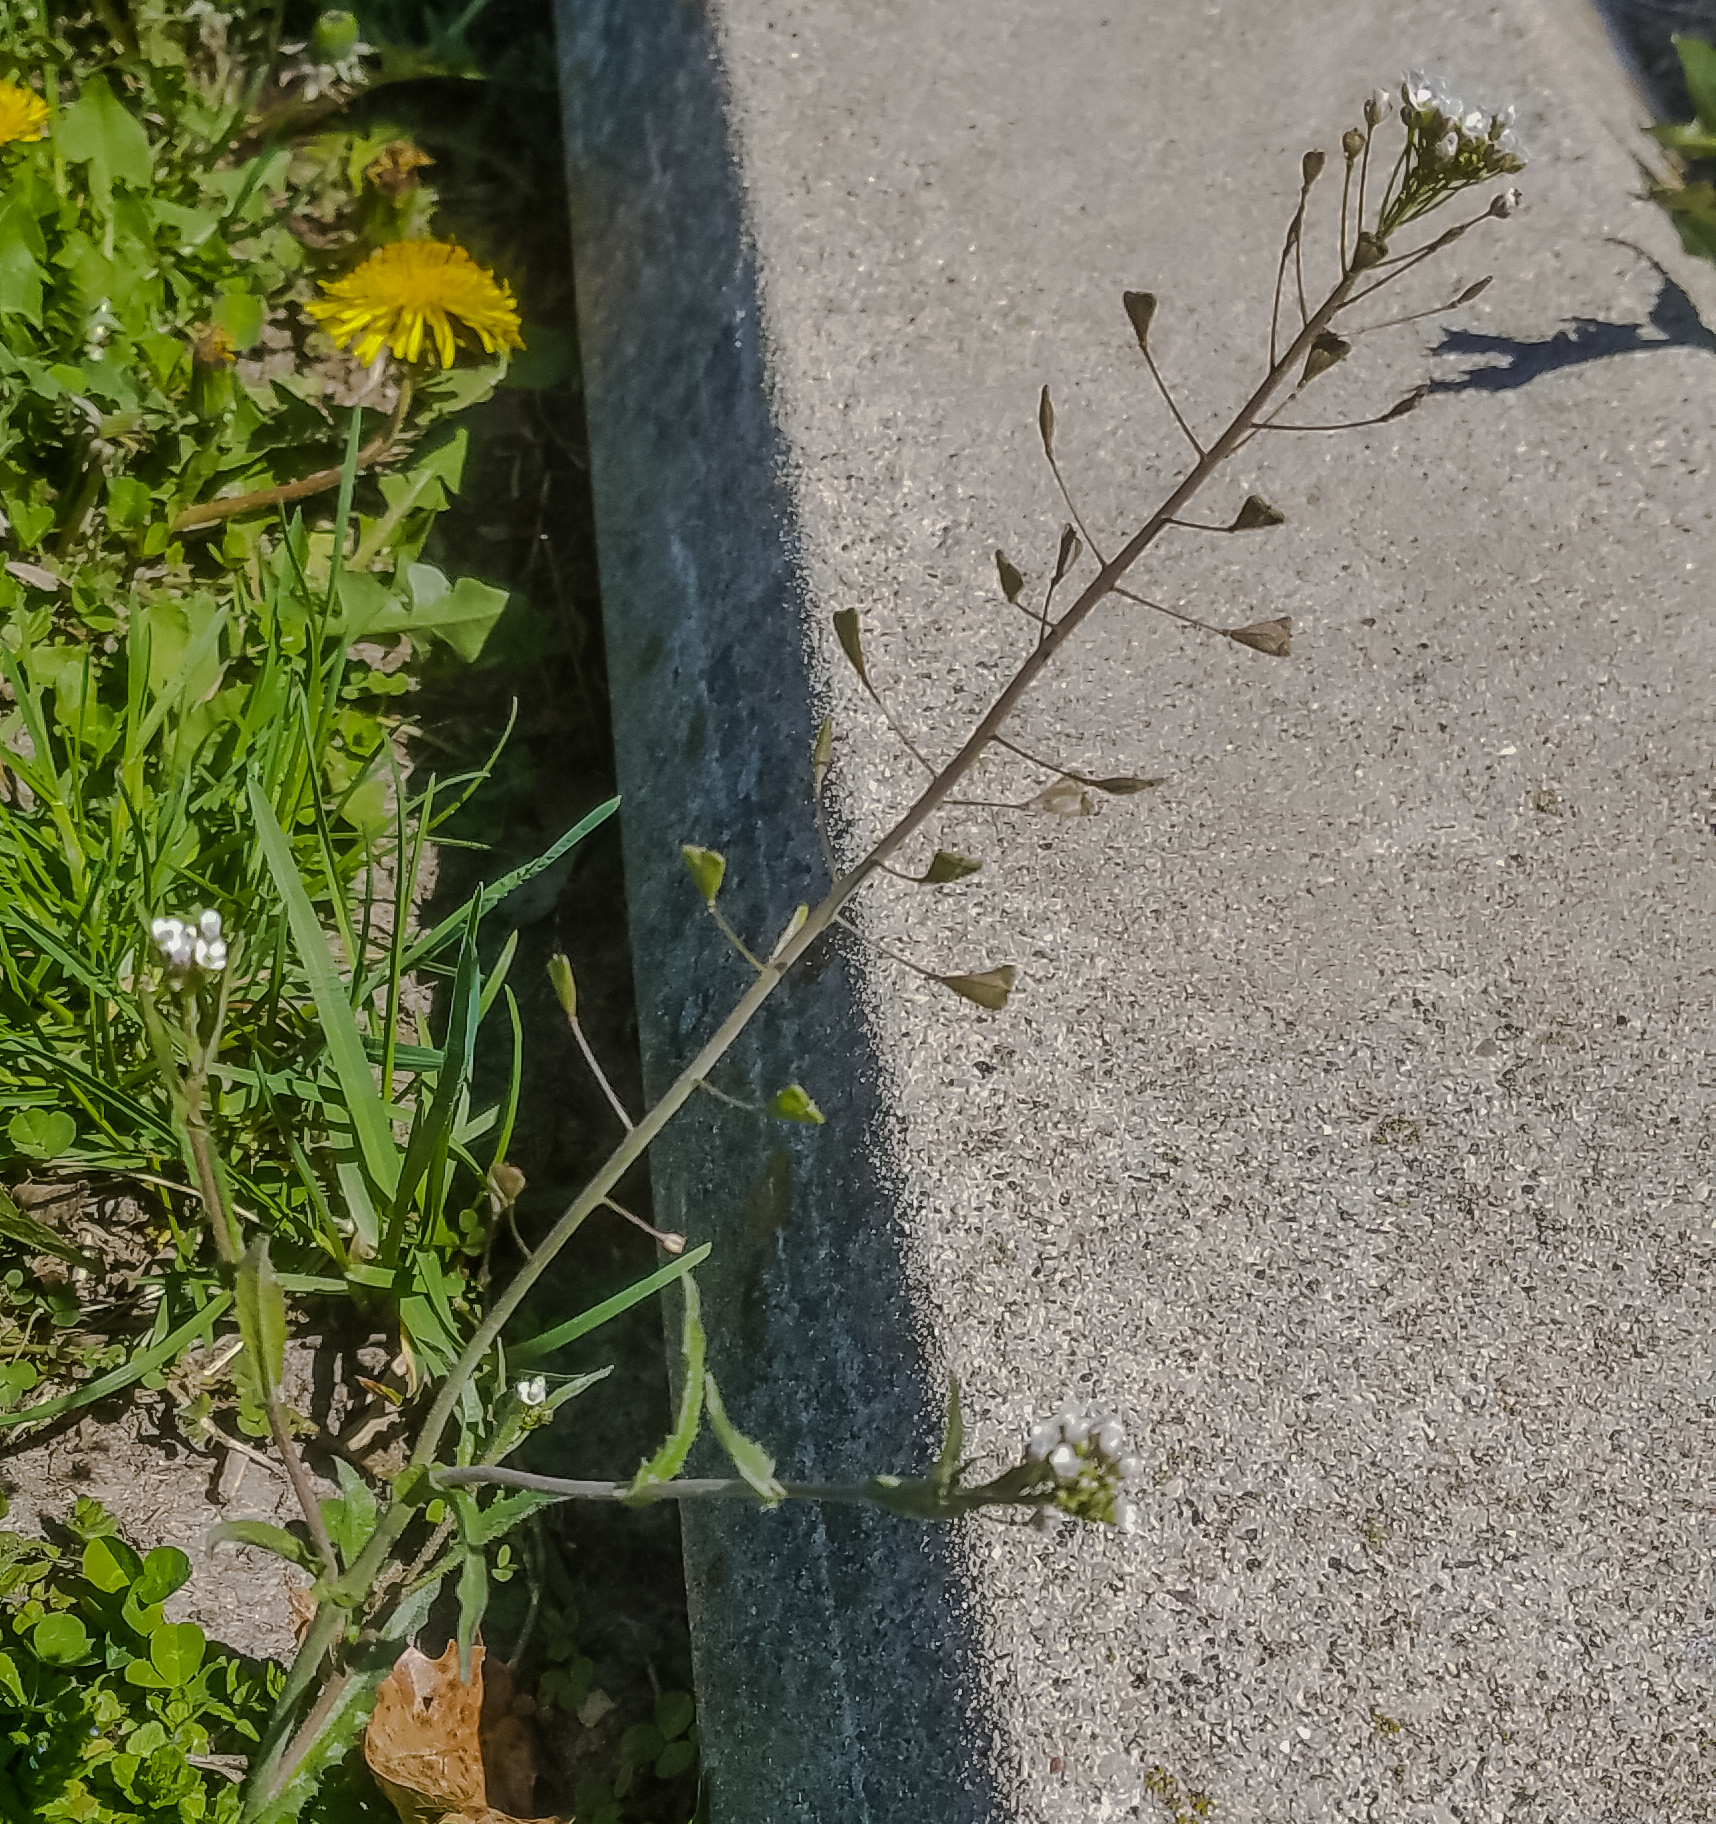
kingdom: Plantae
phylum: Tracheophyta
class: Magnoliopsida
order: Brassicales
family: Brassicaceae
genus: Capsella
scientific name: Capsella bursa-pastoris
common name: Shepherd's purse
